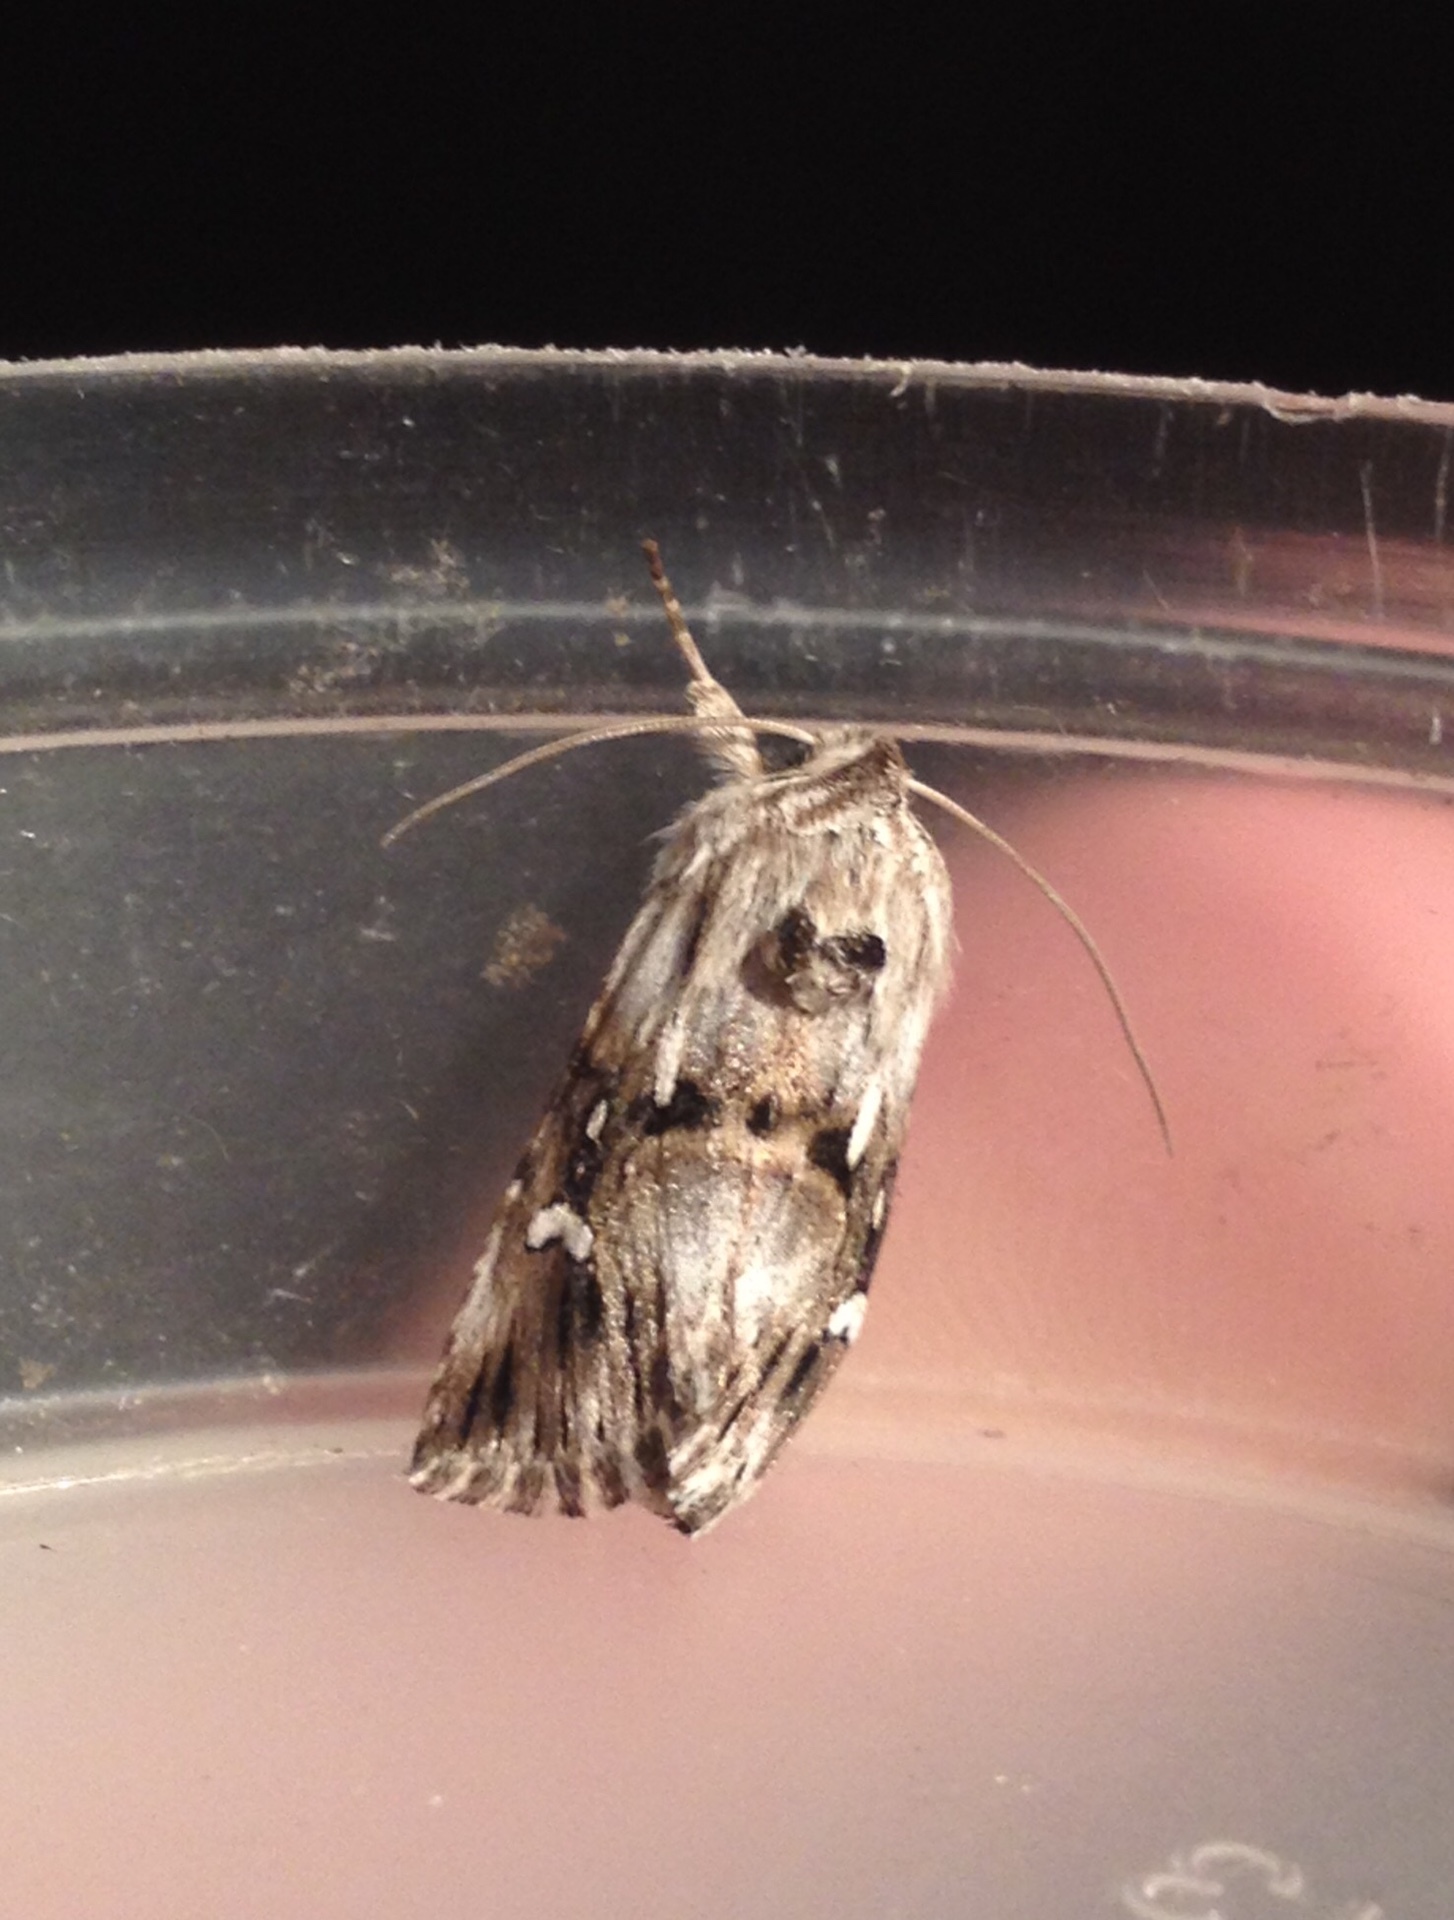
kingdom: Animalia
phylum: Arthropoda
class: Insecta
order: Lepidoptera
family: Noctuidae
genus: Calophasia
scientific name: Calophasia lunula
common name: Toadflax brocade
